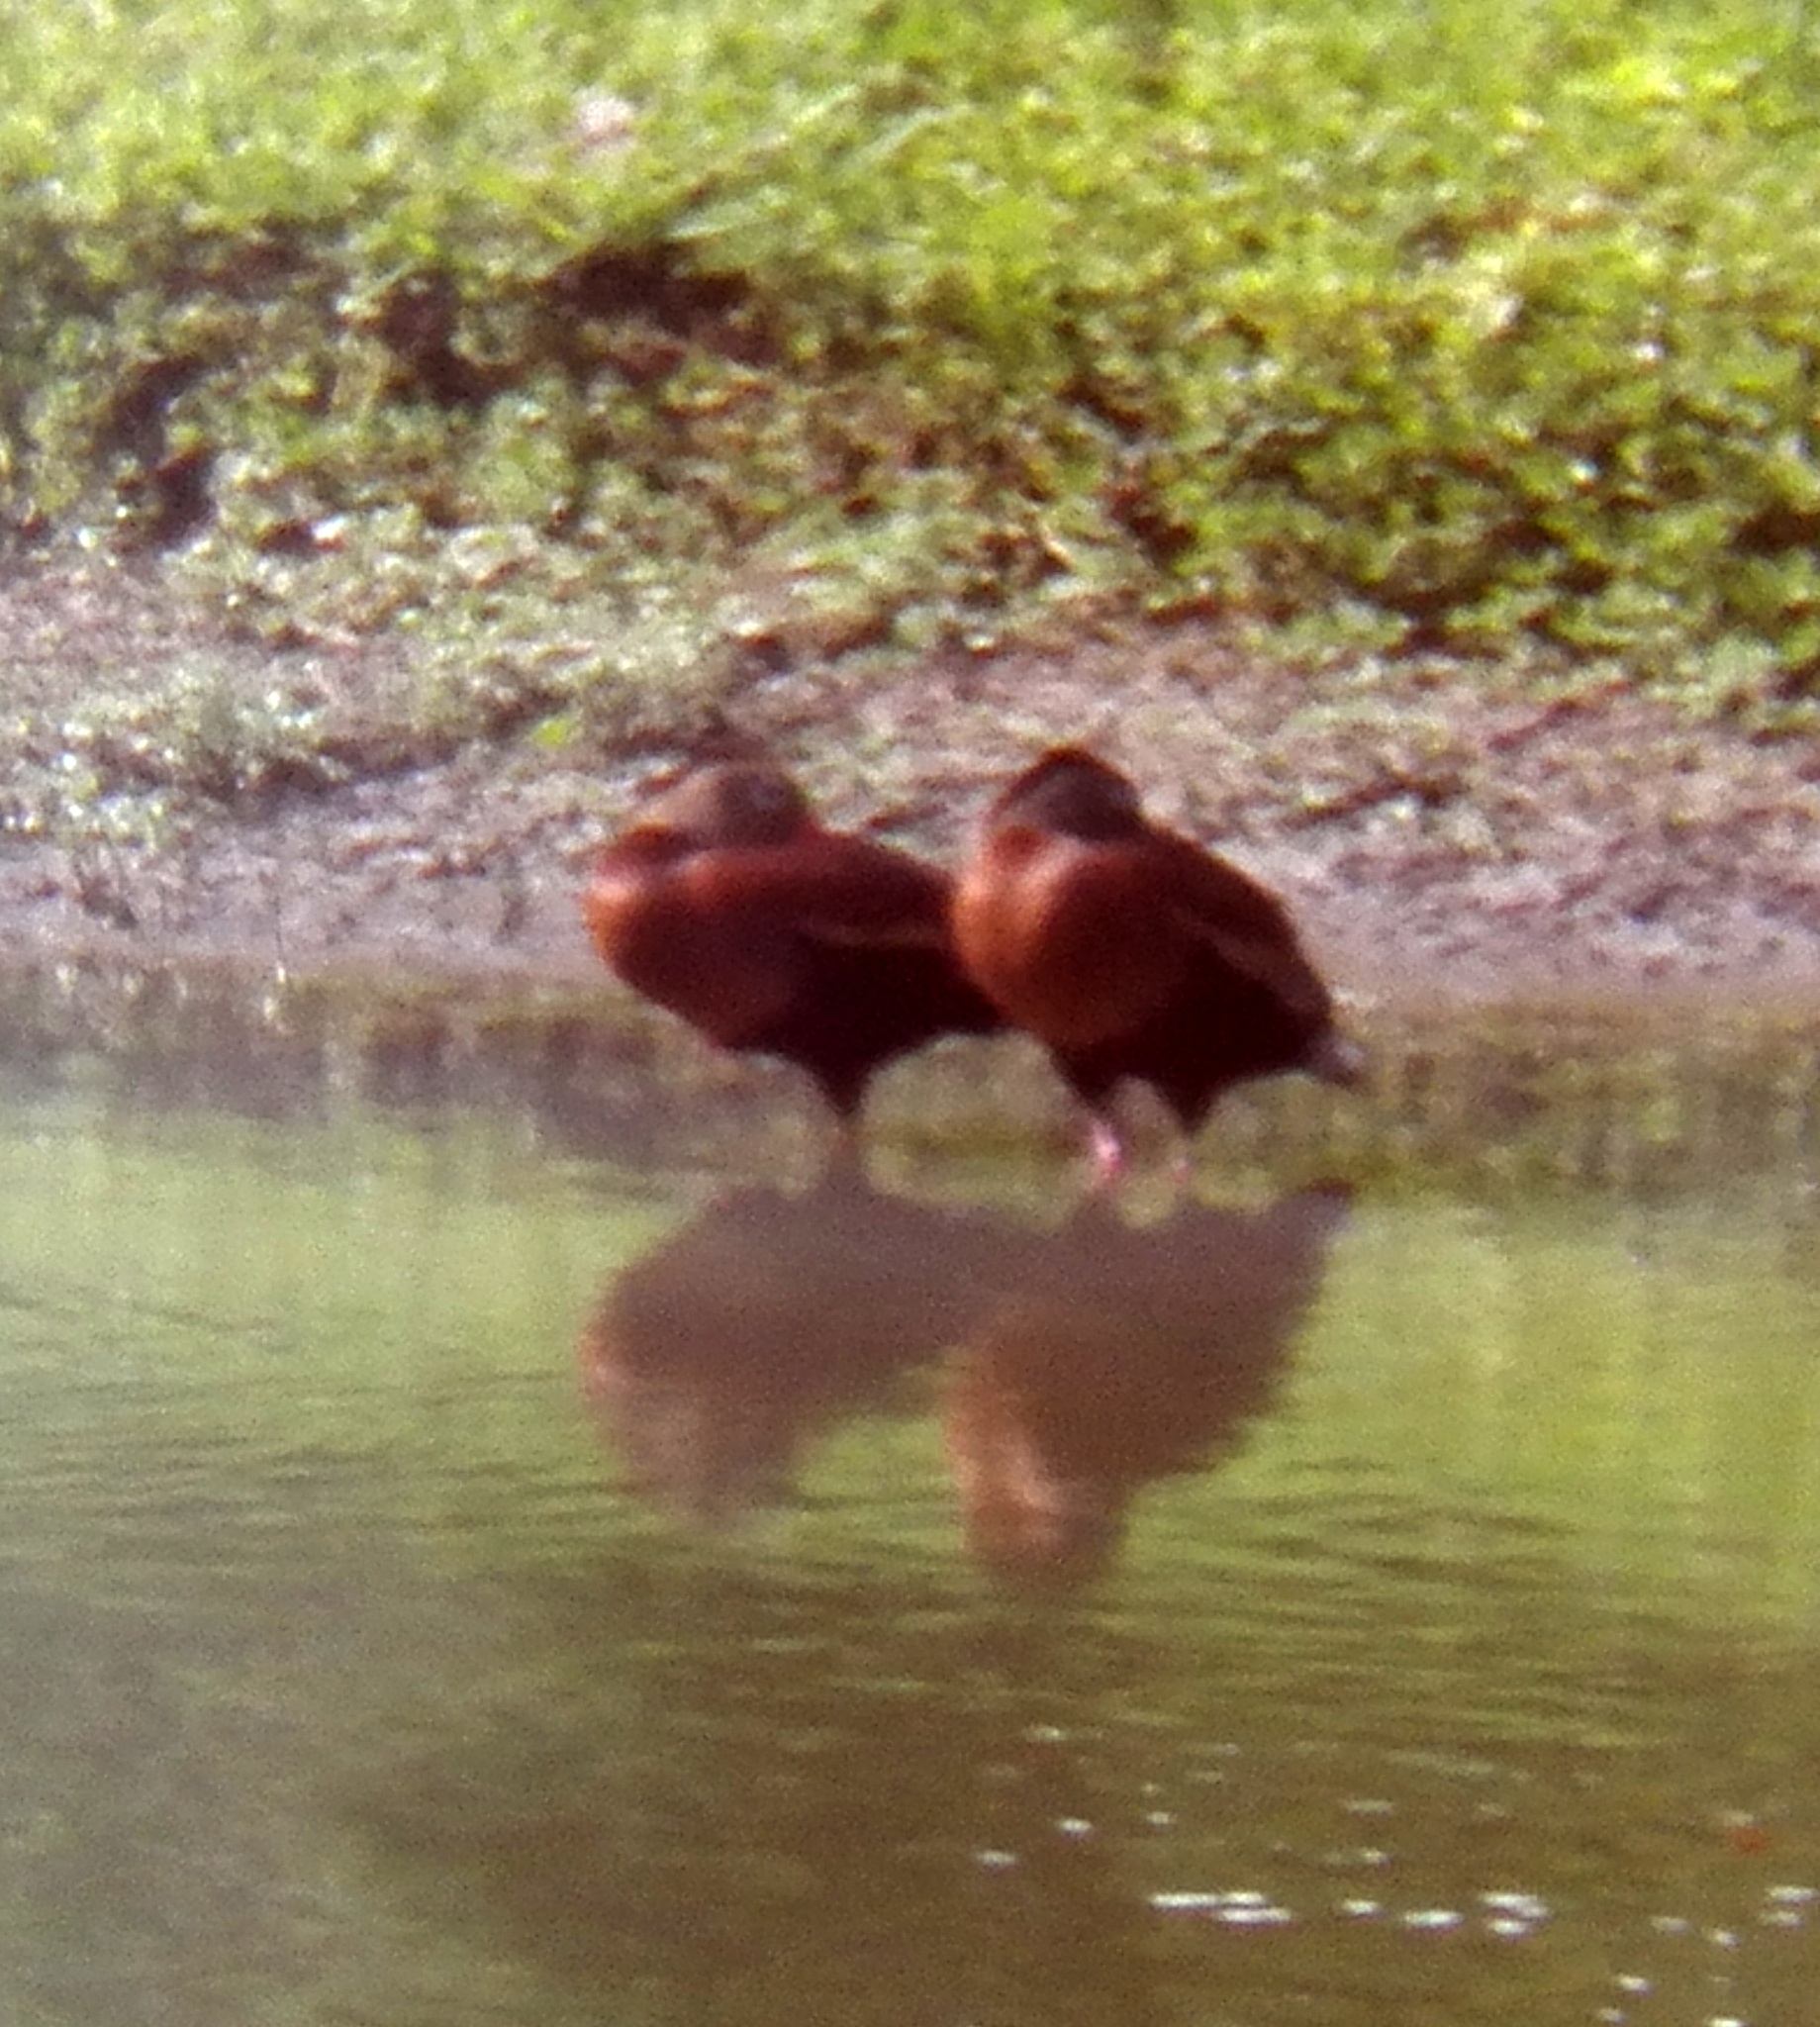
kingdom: Animalia
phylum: Chordata
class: Aves
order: Anseriformes
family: Anatidae
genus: Dendrocygna
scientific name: Dendrocygna autumnalis
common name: Black-bellied whistling duck
